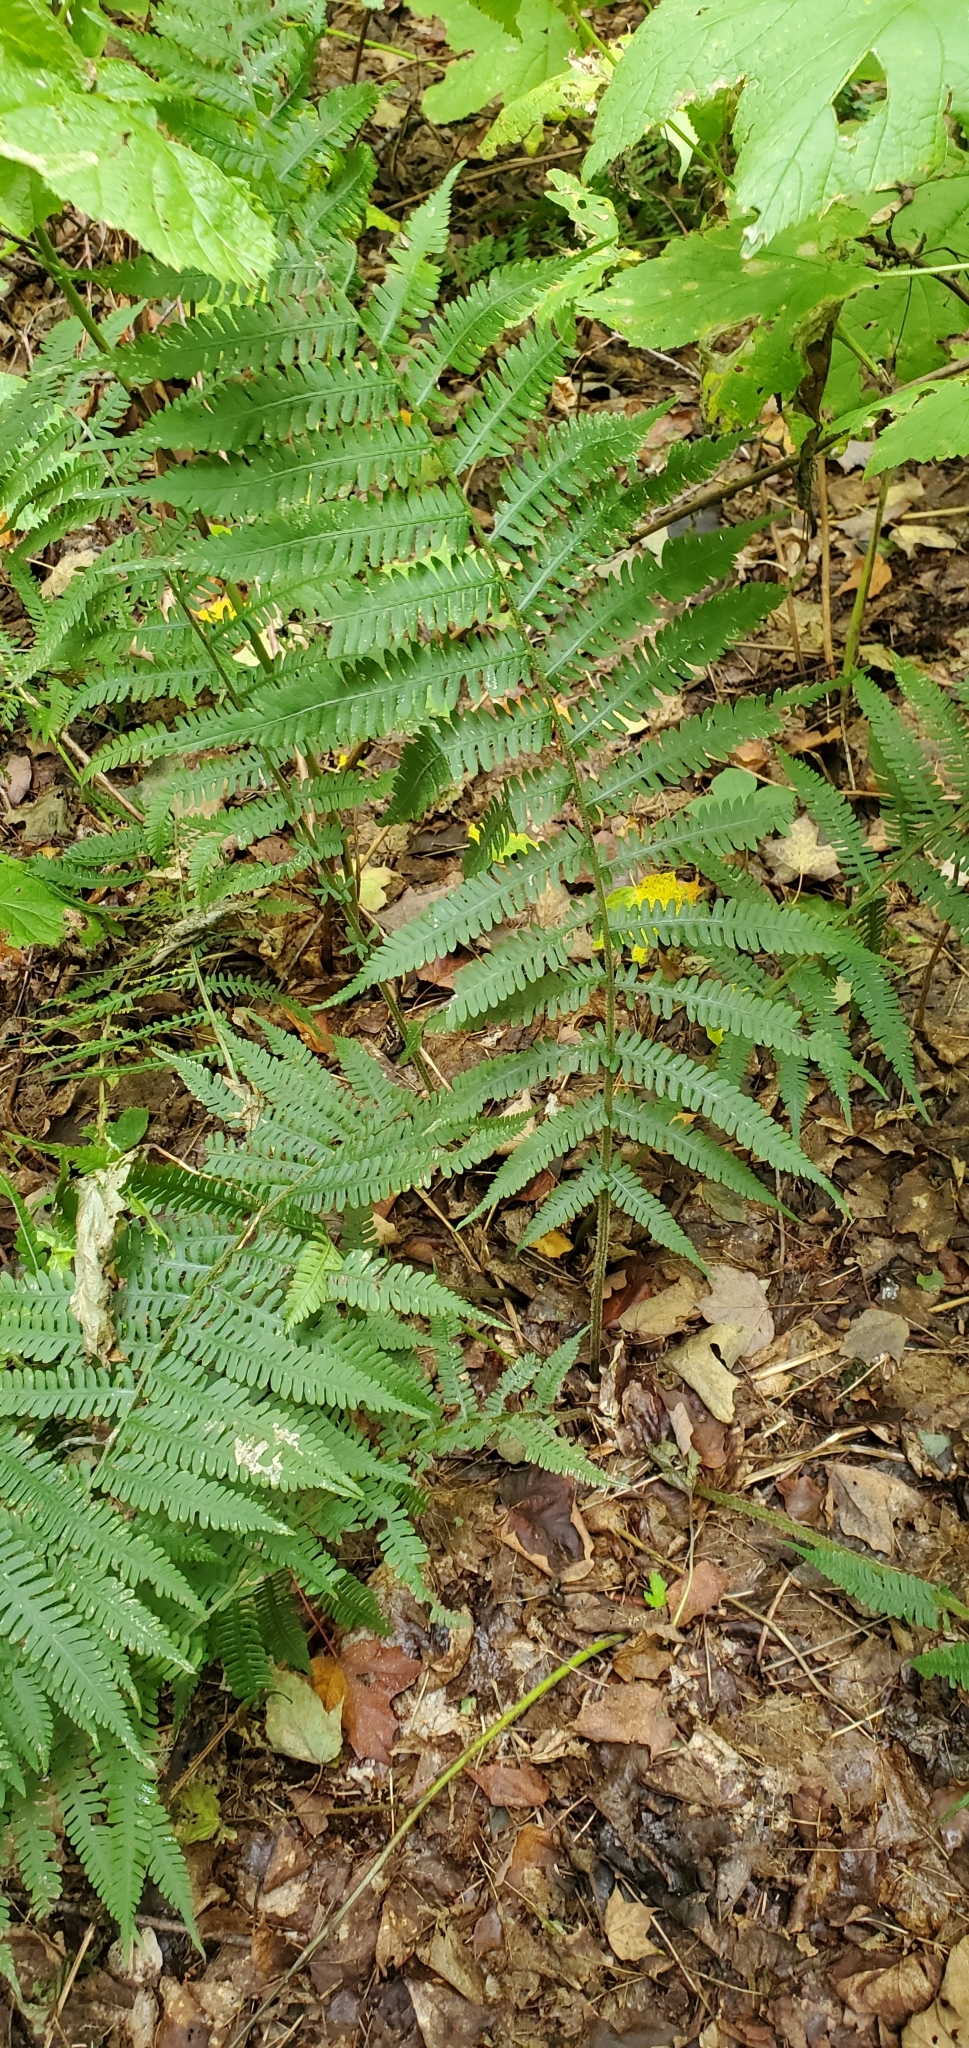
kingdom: Plantae
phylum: Tracheophyta
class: Polypodiopsida
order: Polypodiales
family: Athyriaceae
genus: Deparia
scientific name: Deparia acrostichoides
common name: Silver false spleenwort
